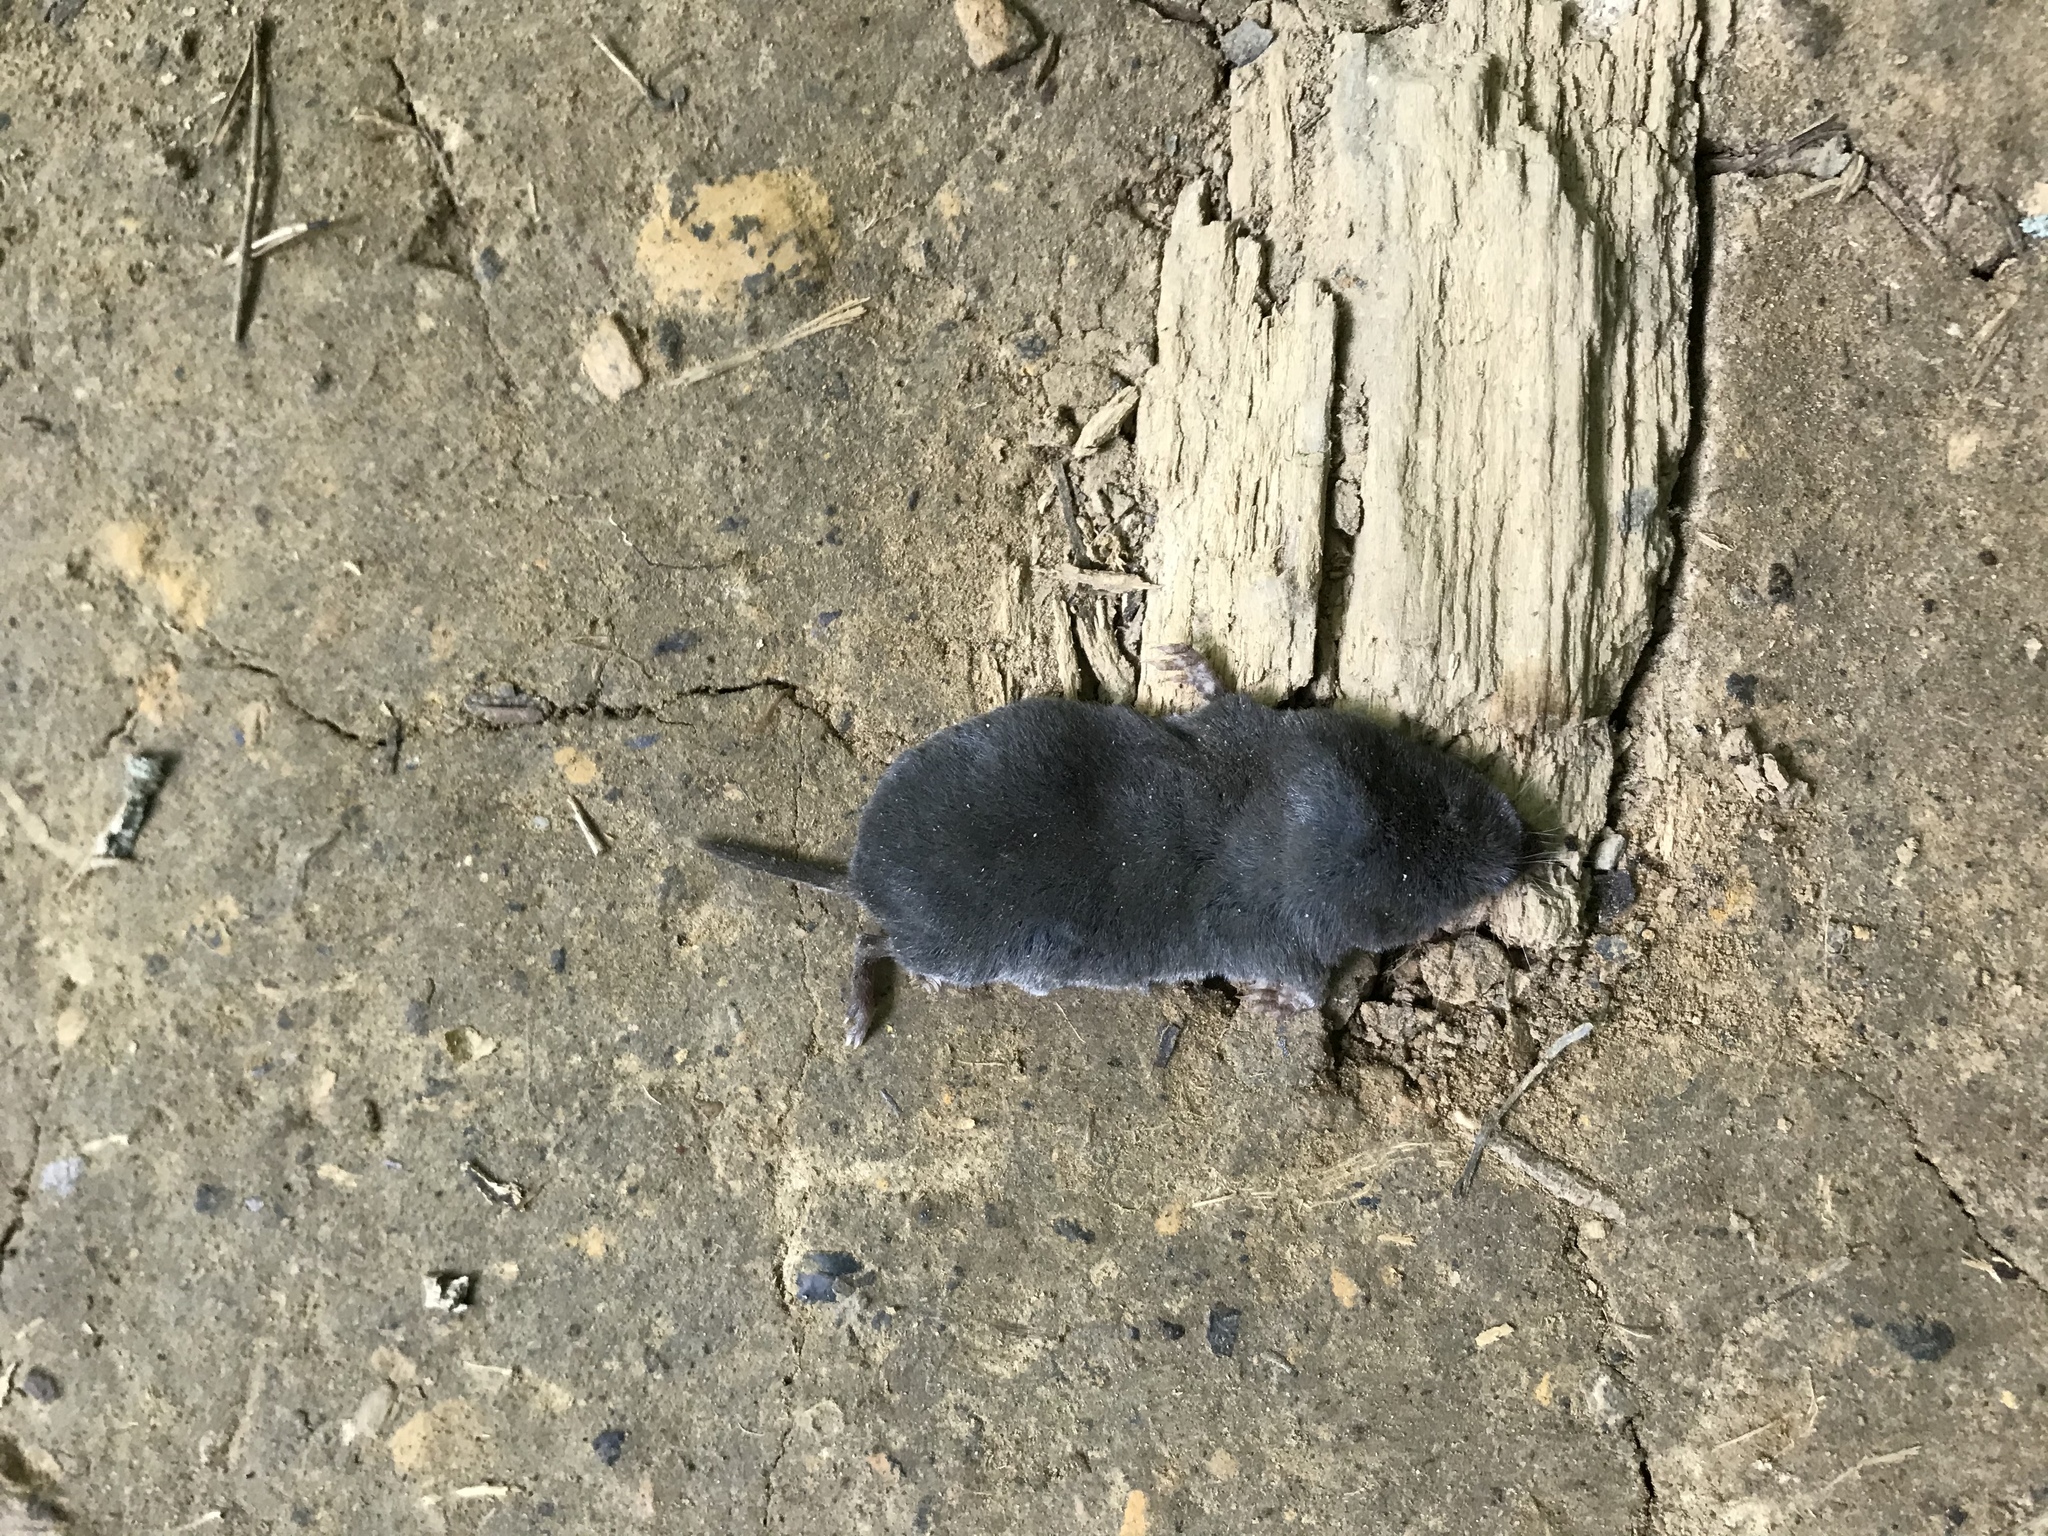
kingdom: Animalia
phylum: Chordata
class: Mammalia
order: Soricomorpha
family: Soricidae
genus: Blarina
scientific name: Blarina brevicauda
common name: Northern short-tailed shrew
